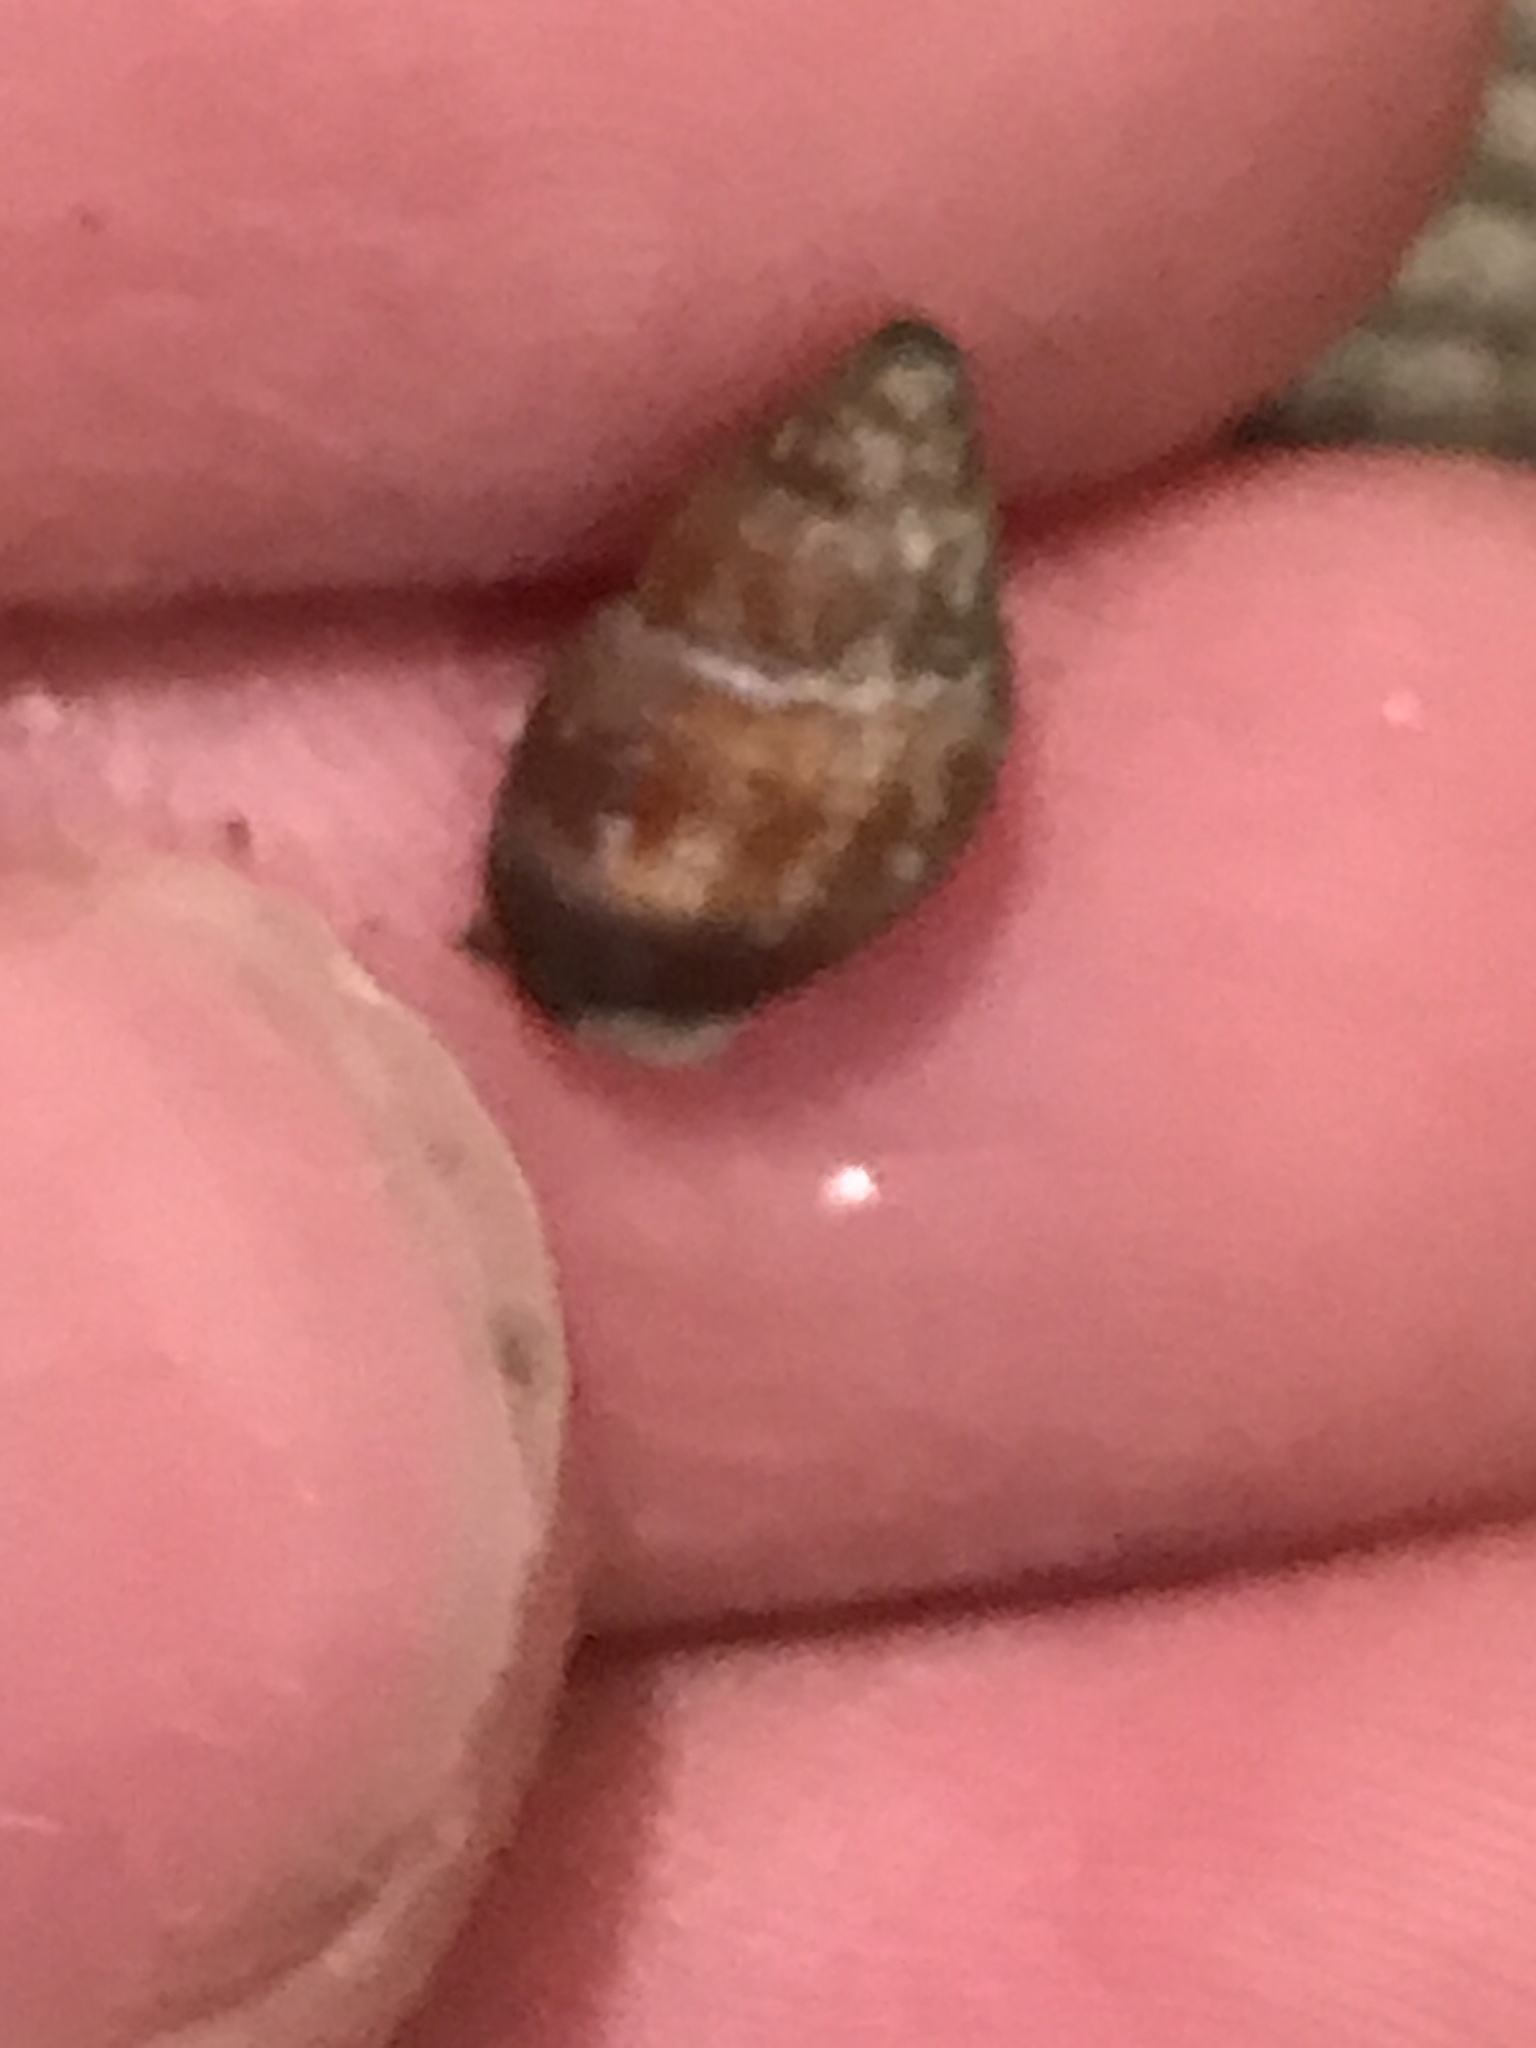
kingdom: Animalia
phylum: Mollusca
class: Gastropoda
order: Neogastropoda
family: Columbellidae
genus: Amphissa
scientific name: Amphissa versicolor
